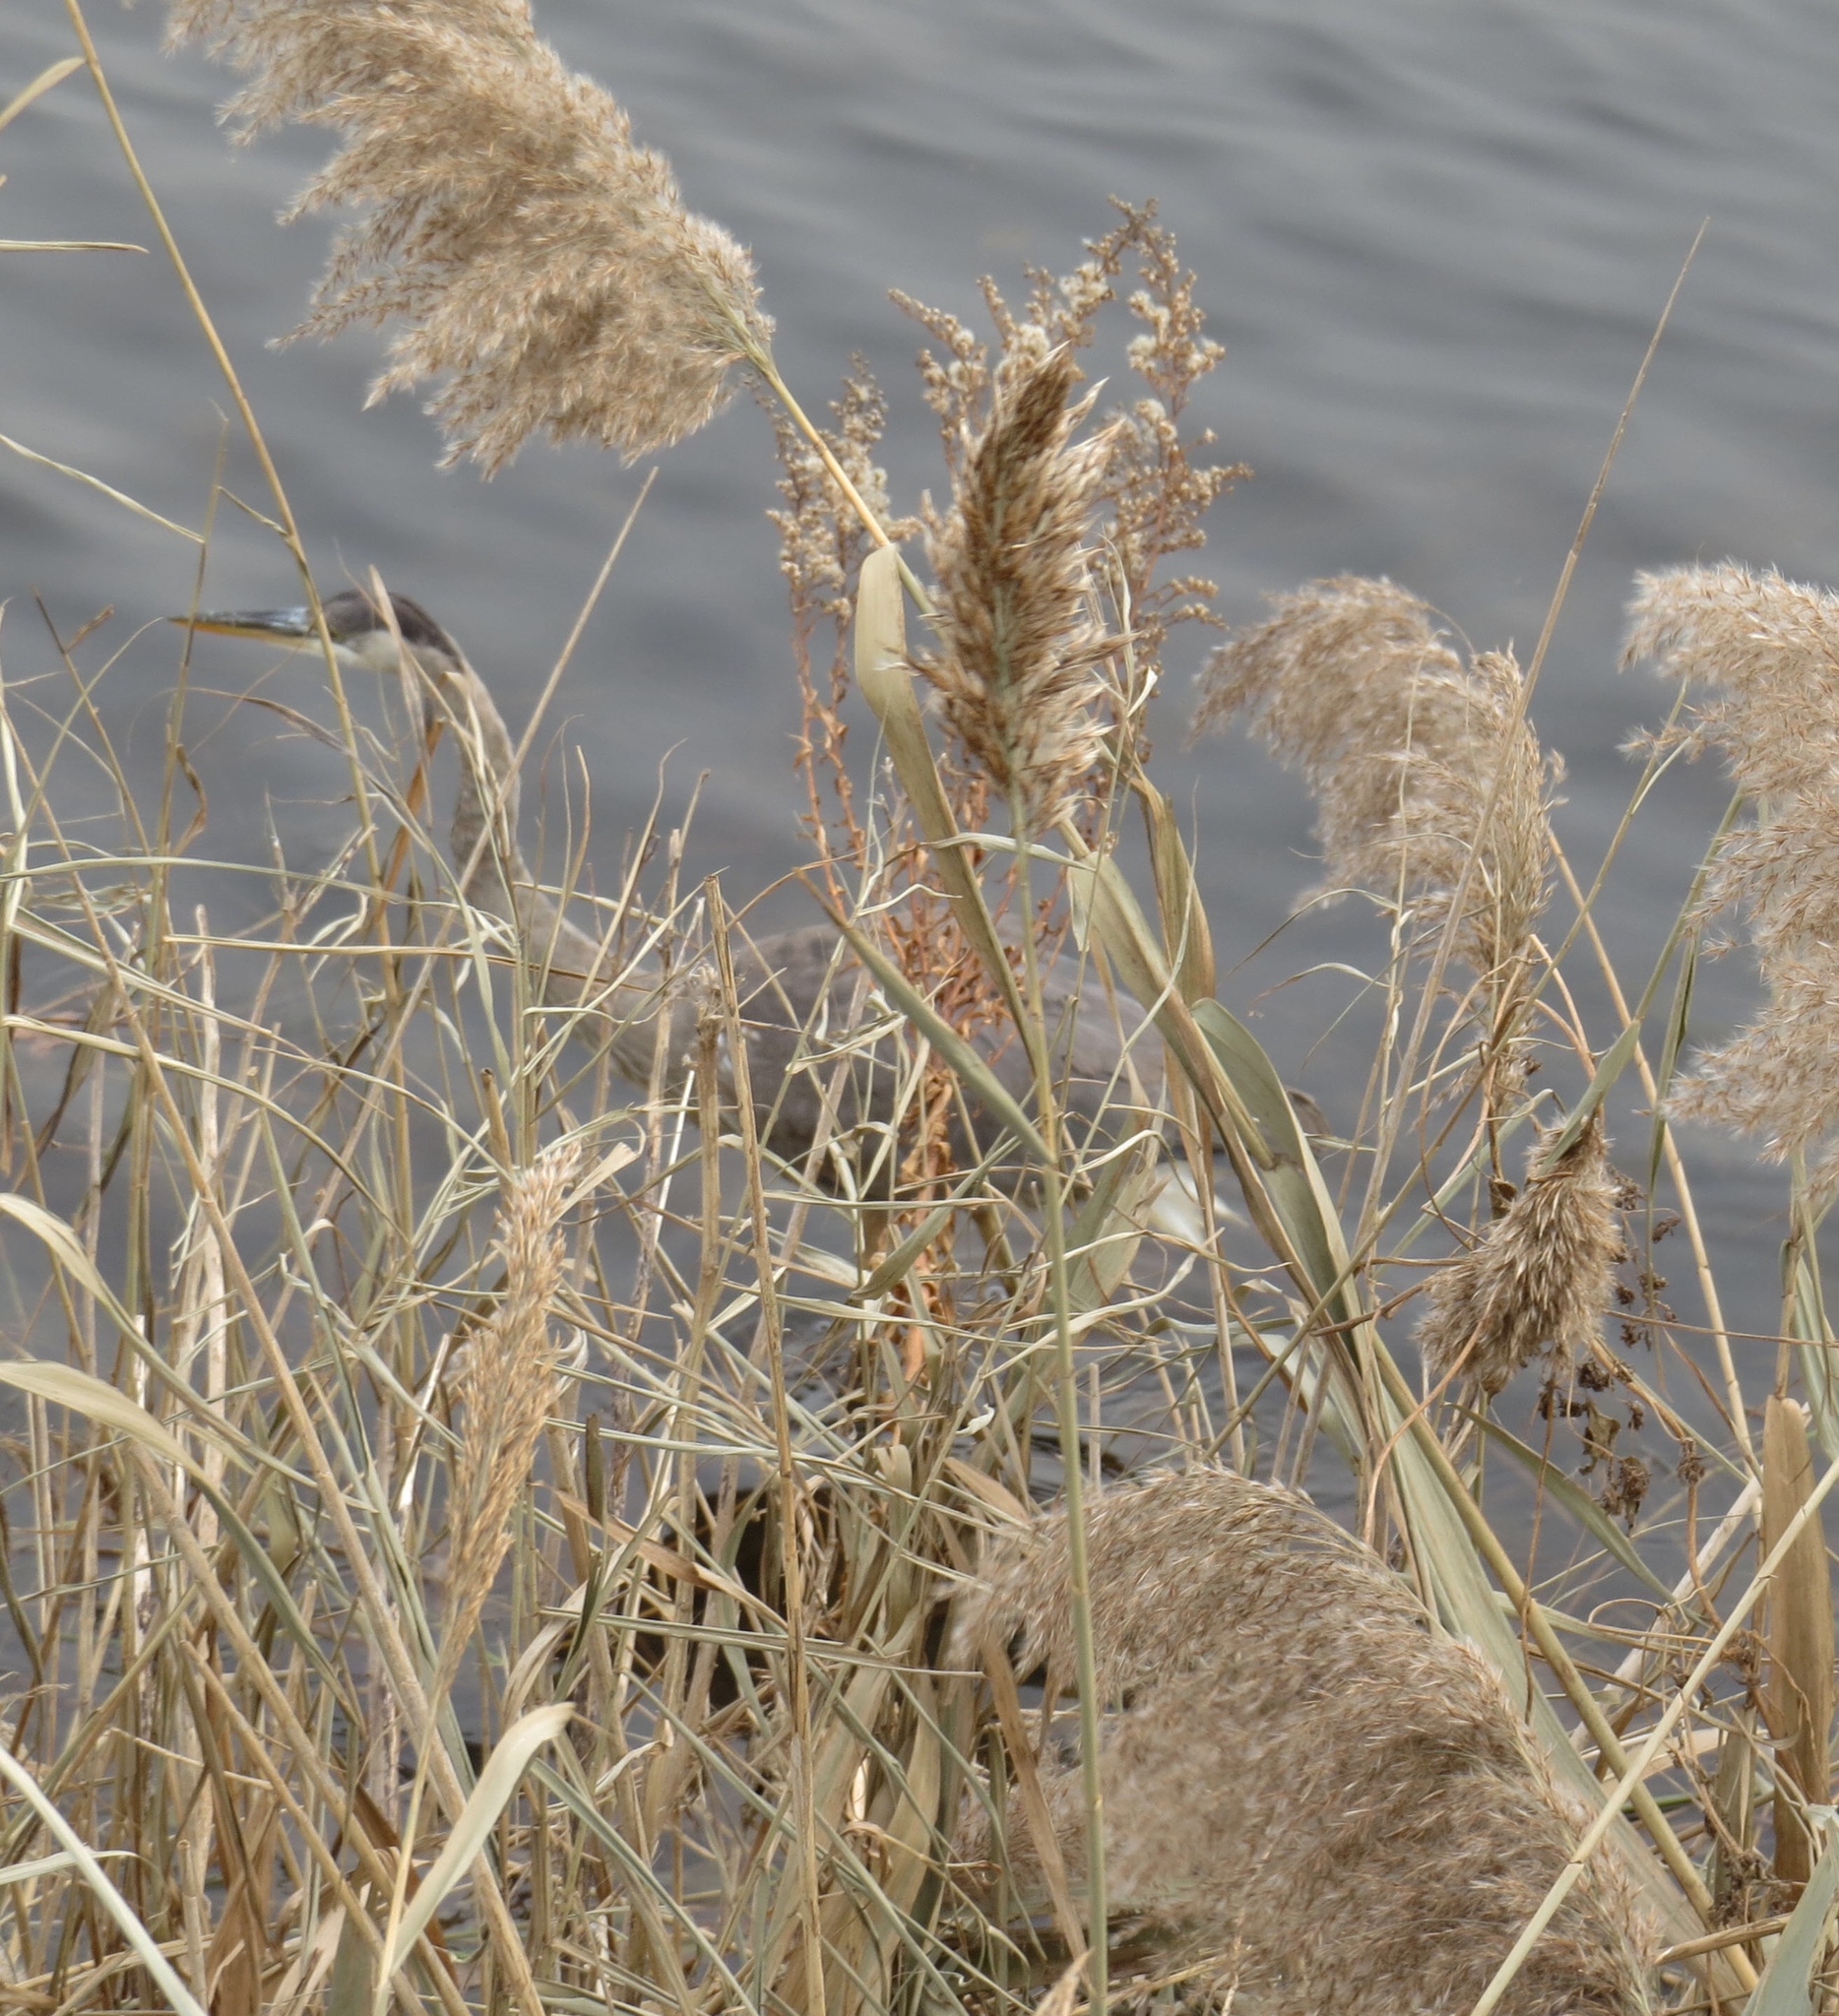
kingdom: Animalia
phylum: Chordata
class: Aves
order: Pelecaniformes
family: Ardeidae
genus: Ardea
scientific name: Ardea herodias
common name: Great blue heron
